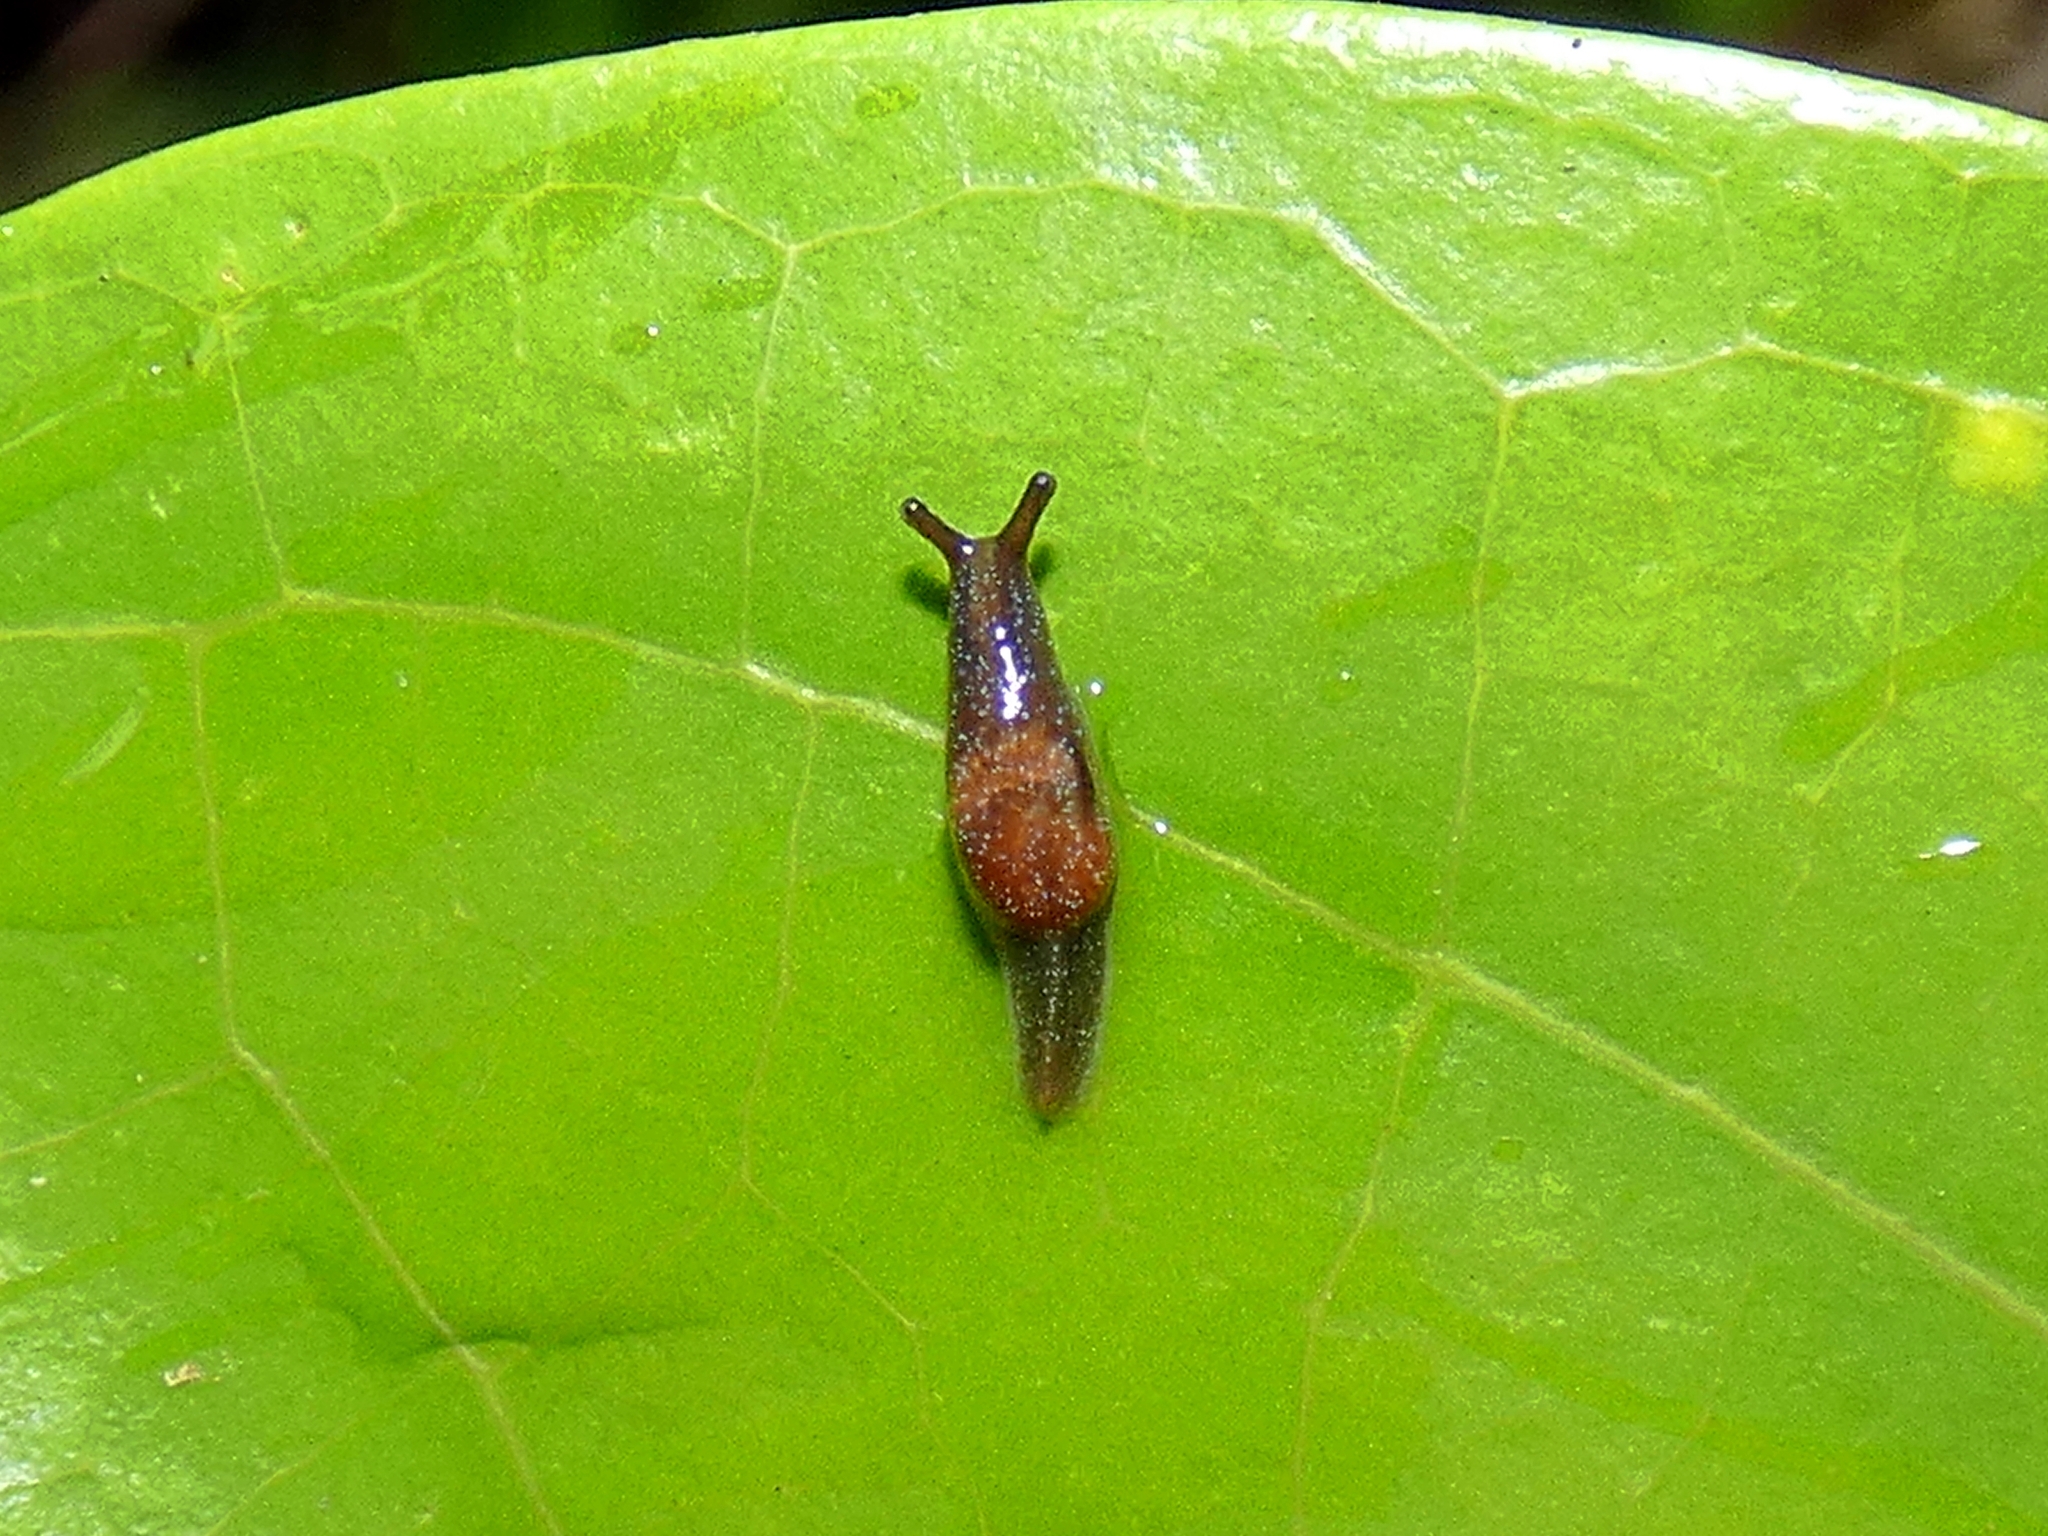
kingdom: Animalia
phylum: Mollusca
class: Gastropoda
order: Stylommatophora
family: Helicarionidae
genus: Parmacochlea
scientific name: Parmacochlea furca
